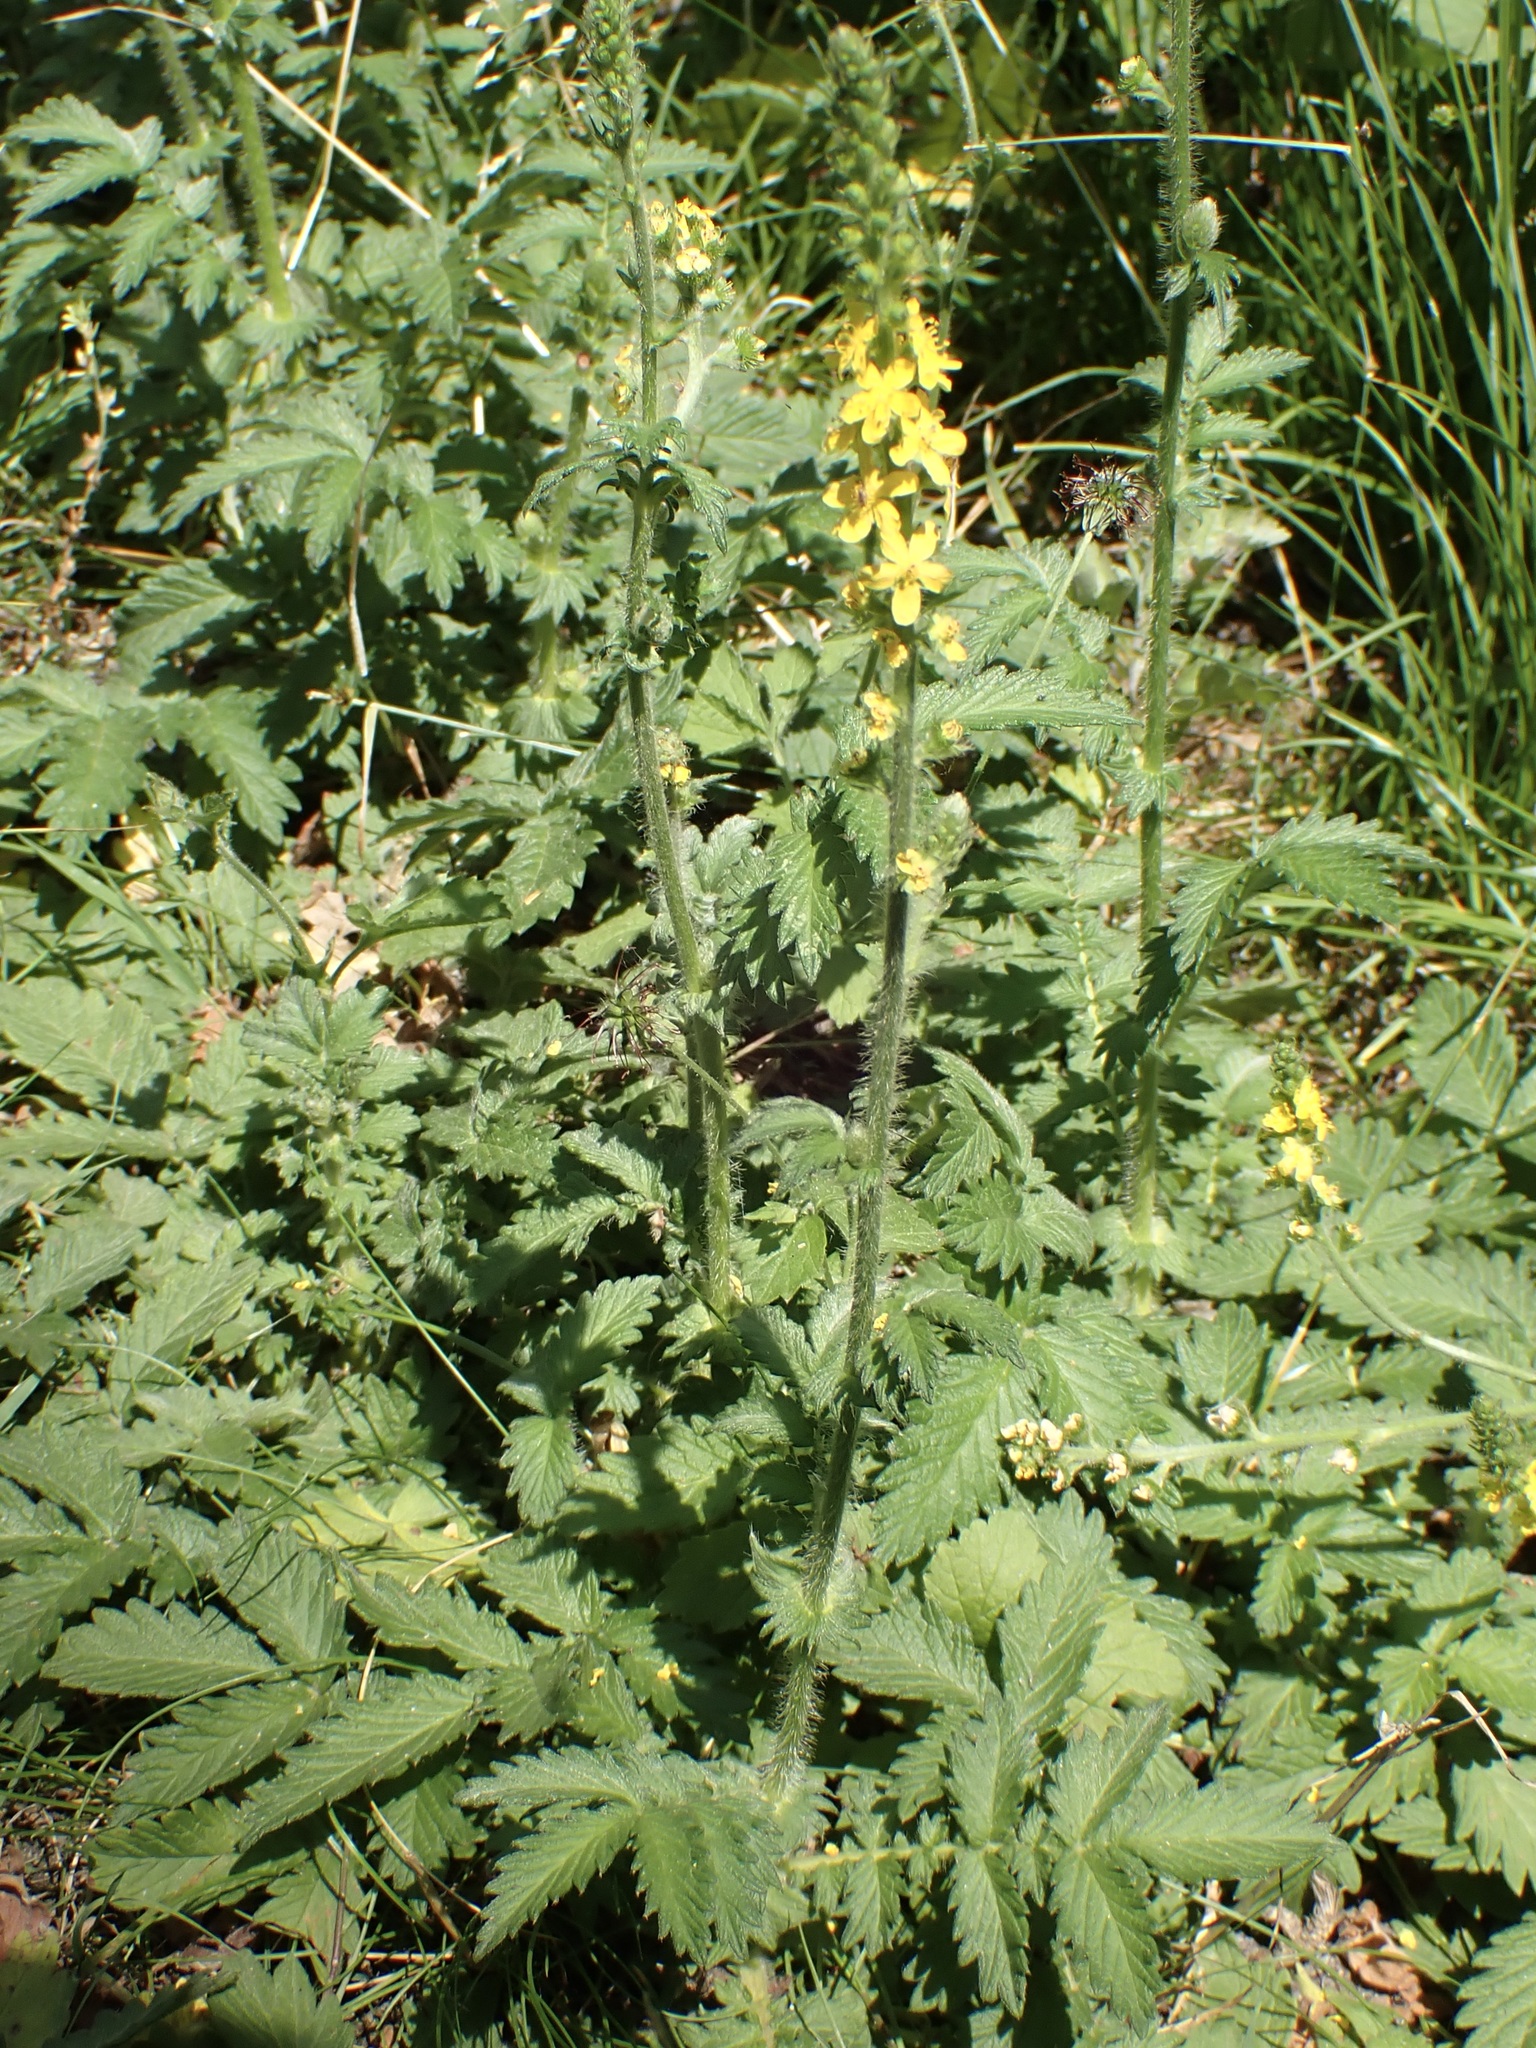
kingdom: Plantae
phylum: Tracheophyta
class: Magnoliopsida
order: Rosales
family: Rosaceae
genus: Agrimonia
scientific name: Agrimonia eupatoria
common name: Agrimony
